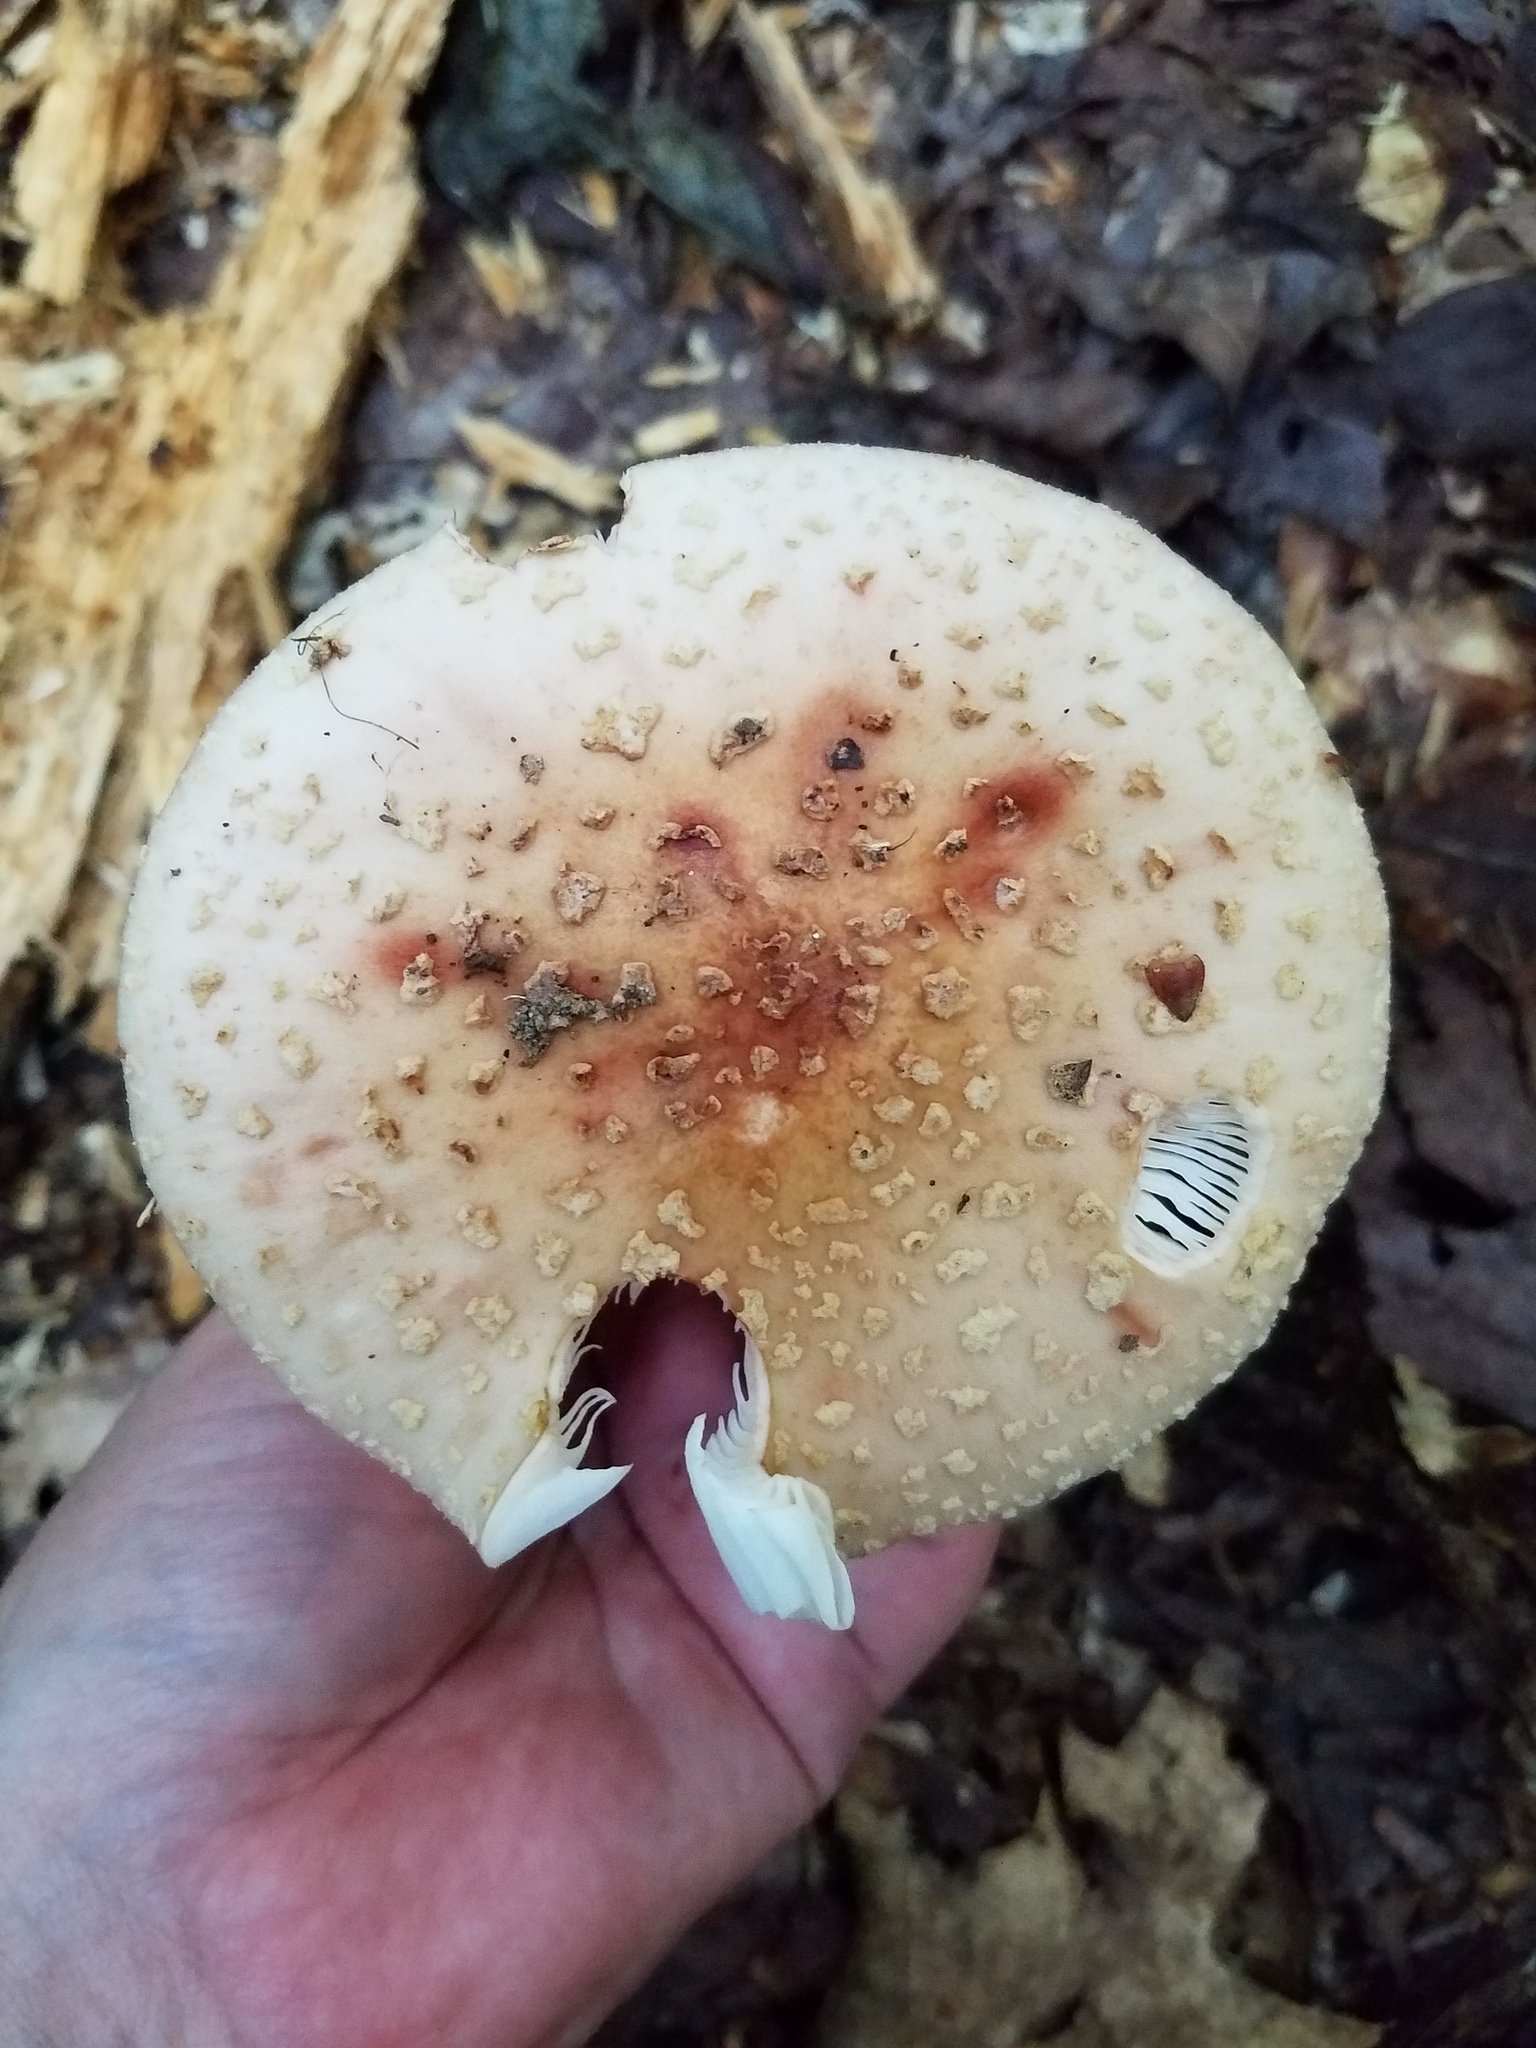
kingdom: Fungi
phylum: Basidiomycota
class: Agaricomycetes
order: Agaricales
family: Amanitaceae
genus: Amanita
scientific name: Amanita
